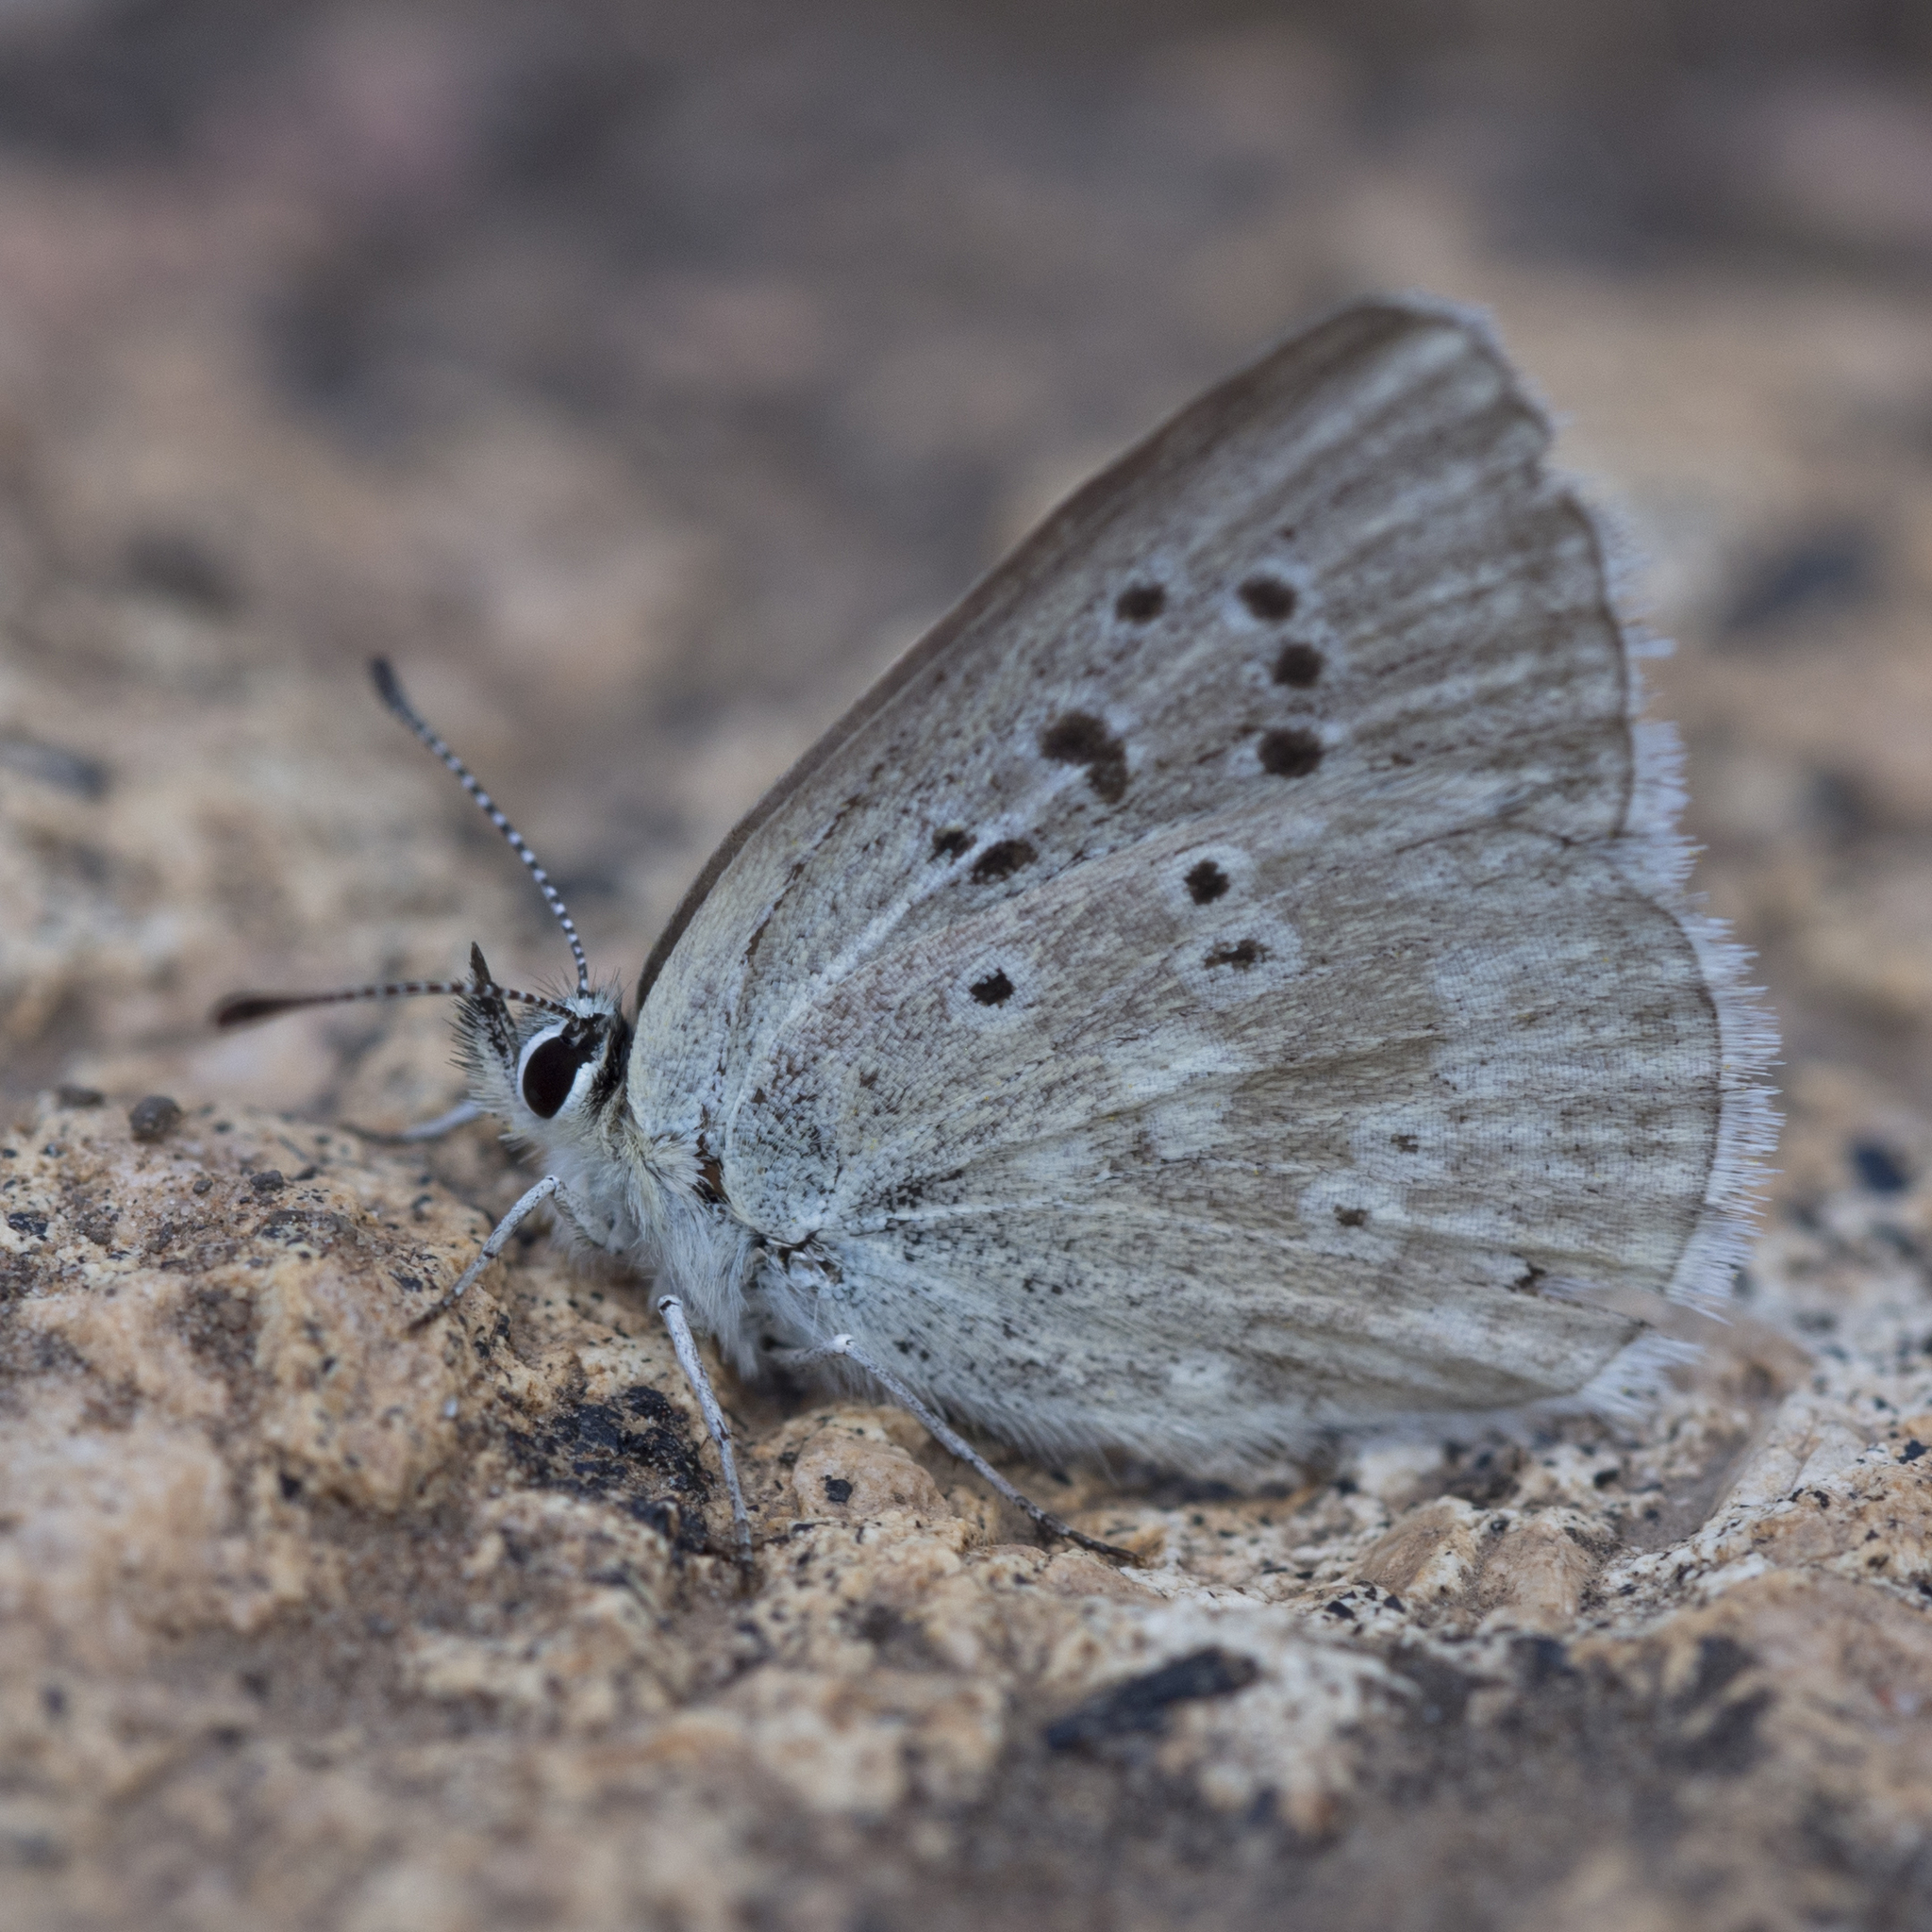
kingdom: Animalia
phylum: Arthropoda
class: Insecta
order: Lepidoptera
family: Lycaenidae
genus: Icaricia
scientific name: Icaricia icarioides
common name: Boisduval's blue
